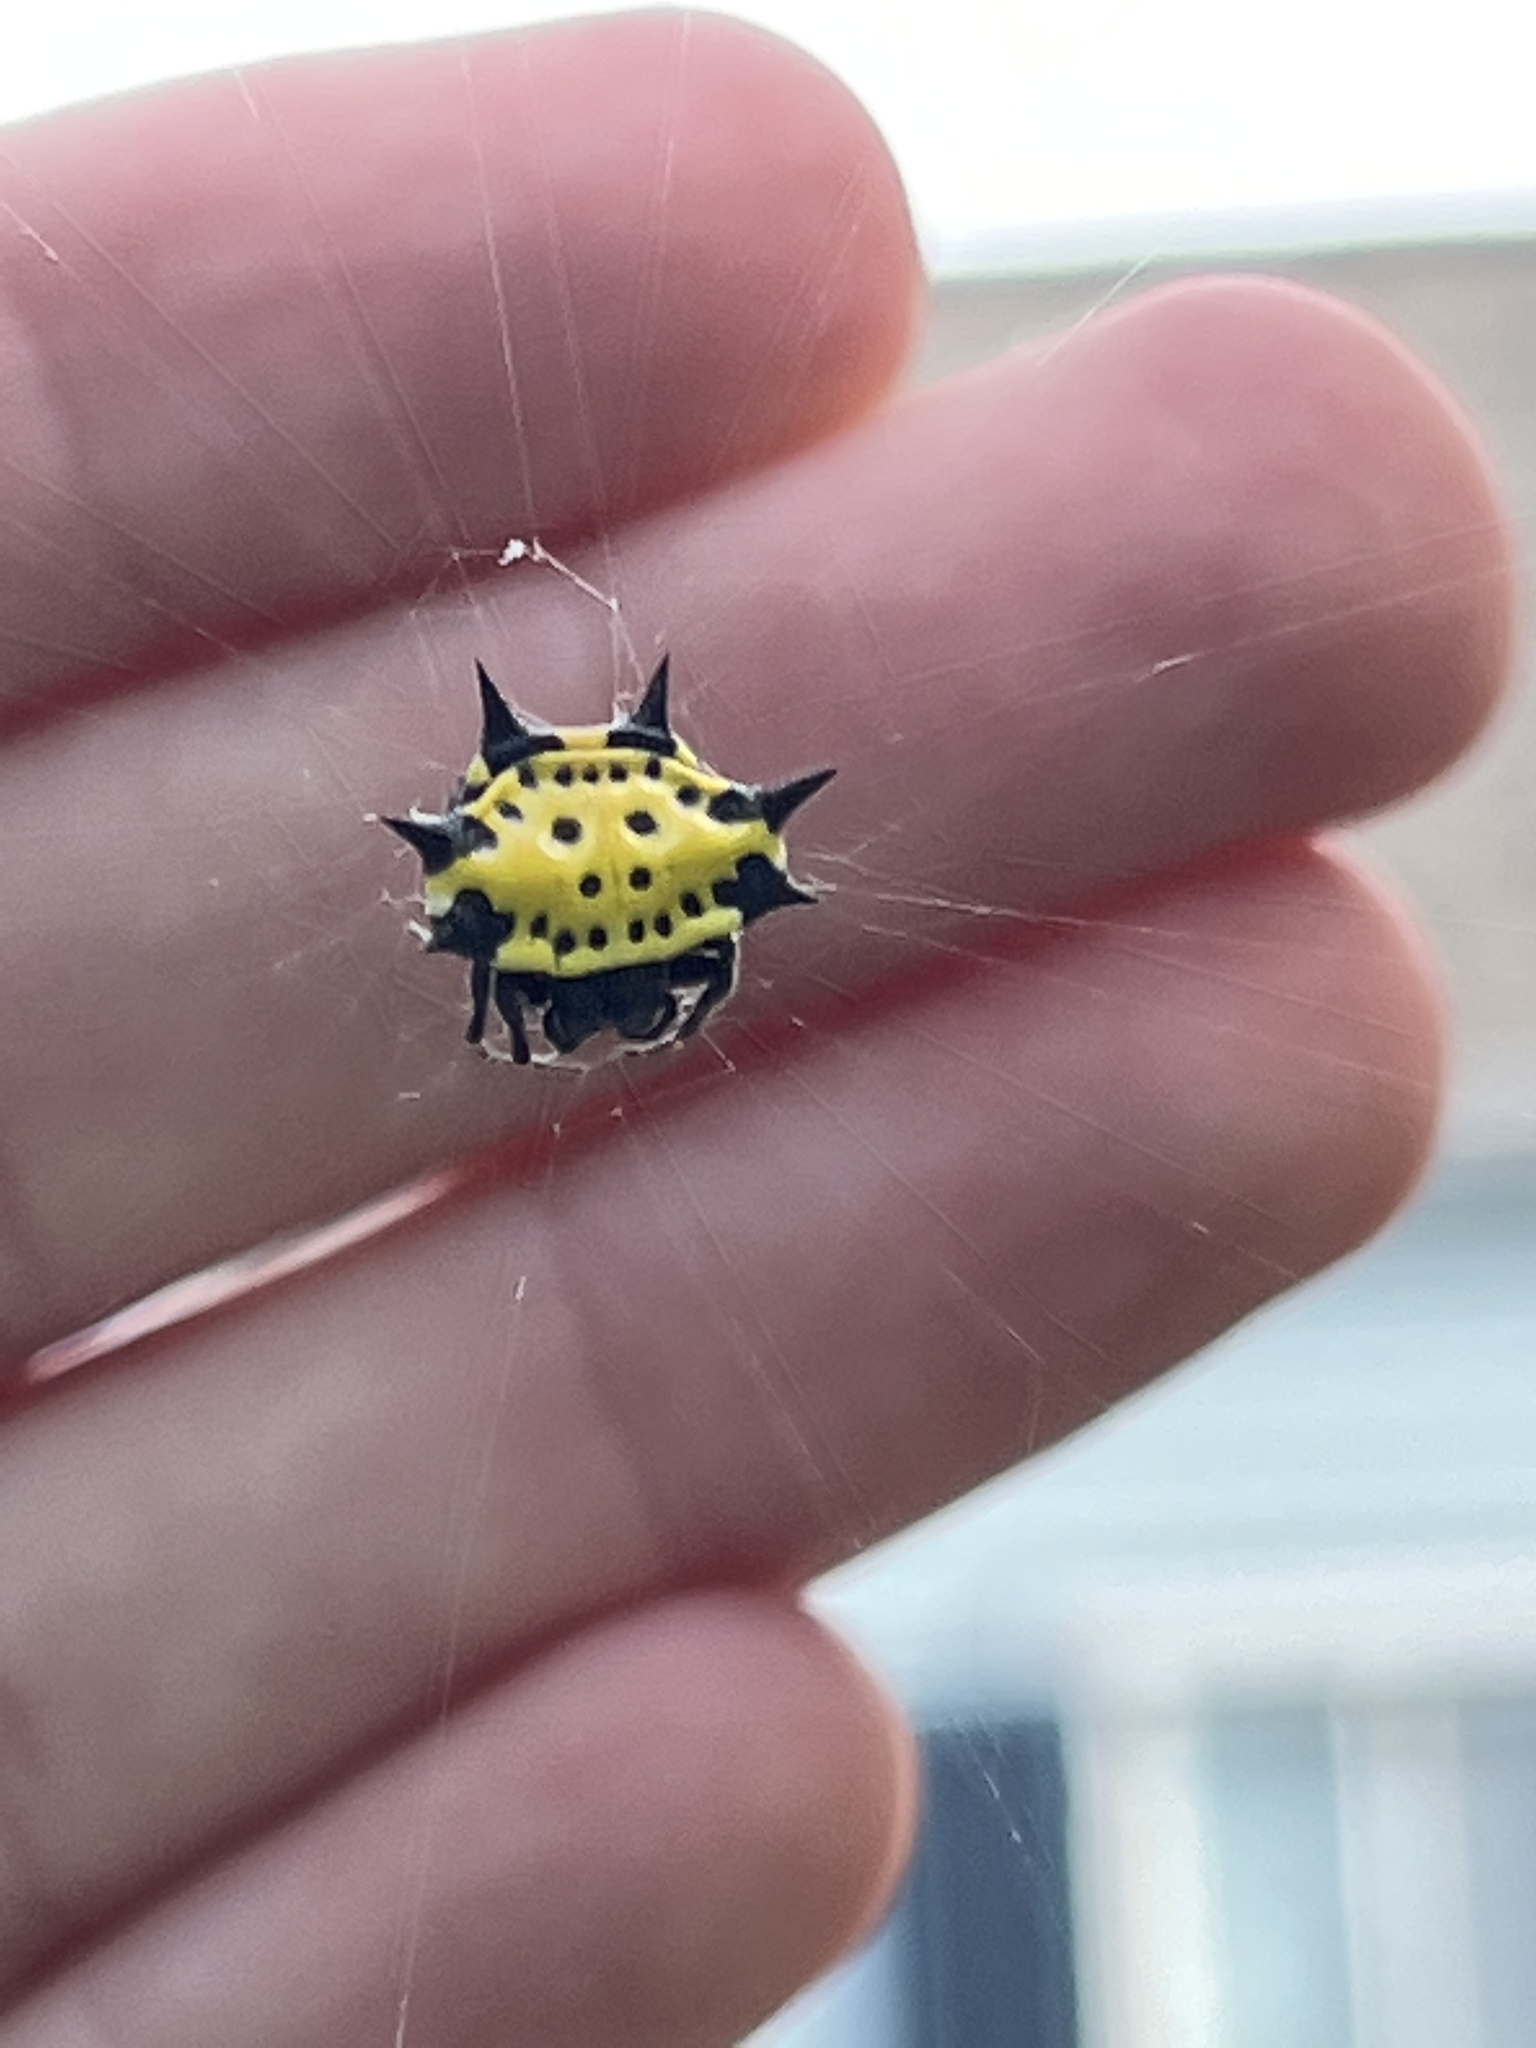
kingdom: Animalia
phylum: Arthropoda
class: Arachnida
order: Araneae
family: Araneidae
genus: Gasteracantha
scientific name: Gasteracantha cancriformis
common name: Orb weavers
